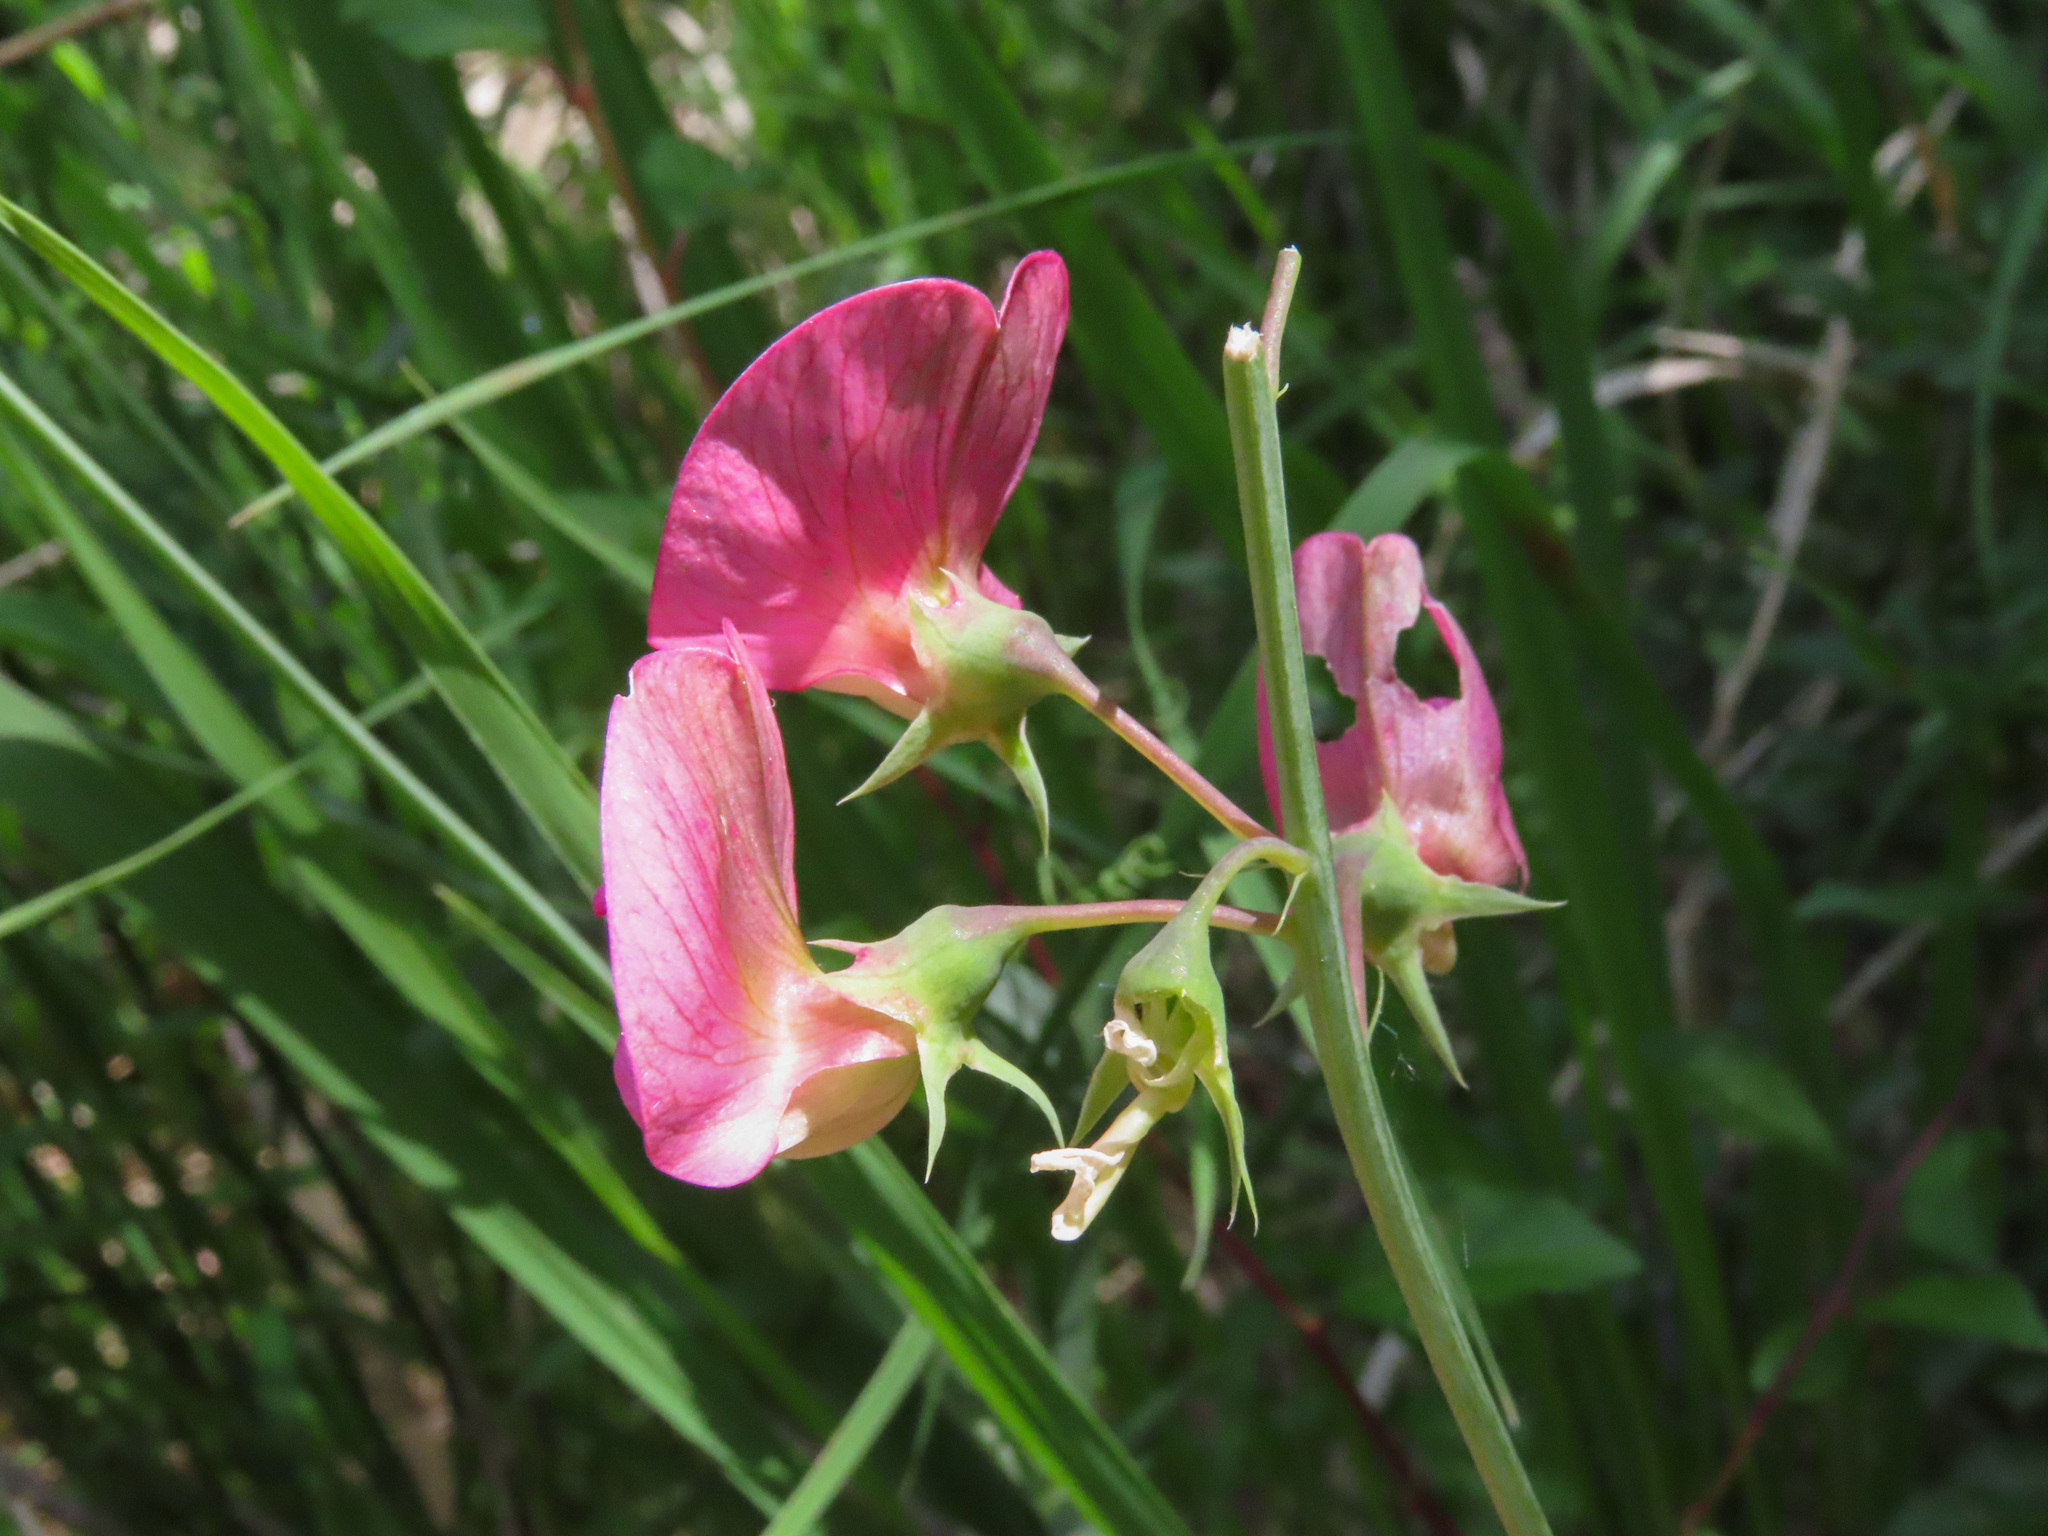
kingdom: Plantae
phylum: Tracheophyta
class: Magnoliopsida
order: Fabales
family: Fabaceae
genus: Lathyrus
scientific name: Lathyrus latifolius
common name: Perennial pea
